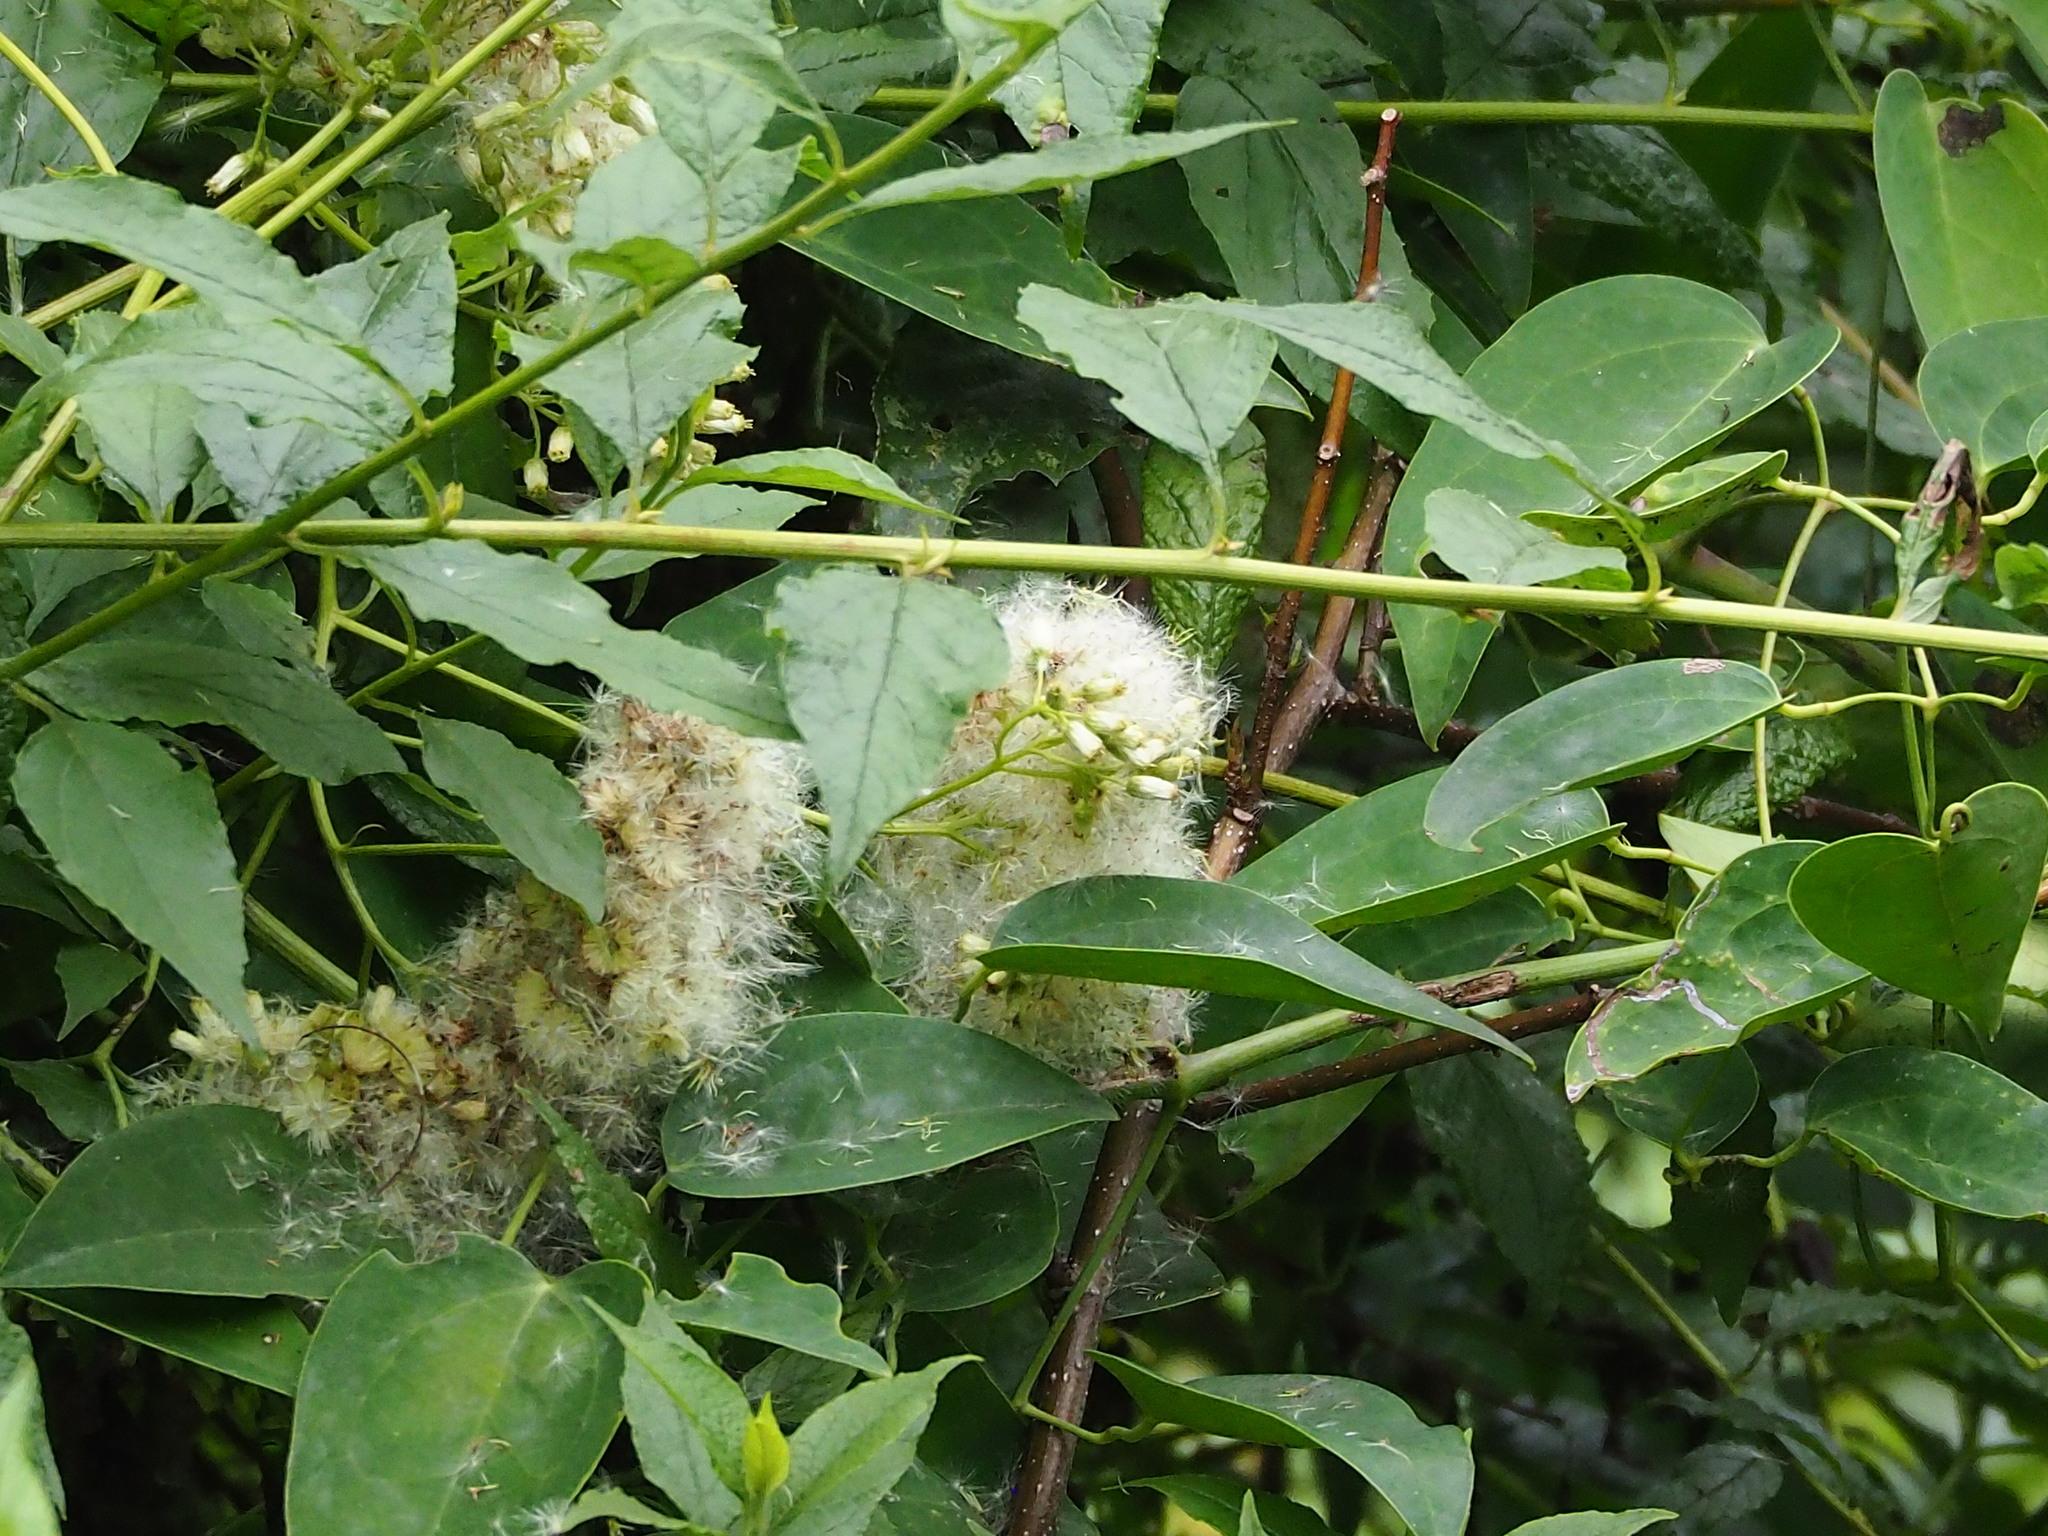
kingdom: Plantae
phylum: Tracheophyta
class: Magnoliopsida
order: Asterales
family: Asteraceae
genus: Microglossa
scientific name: Microglossa pyrifolia
